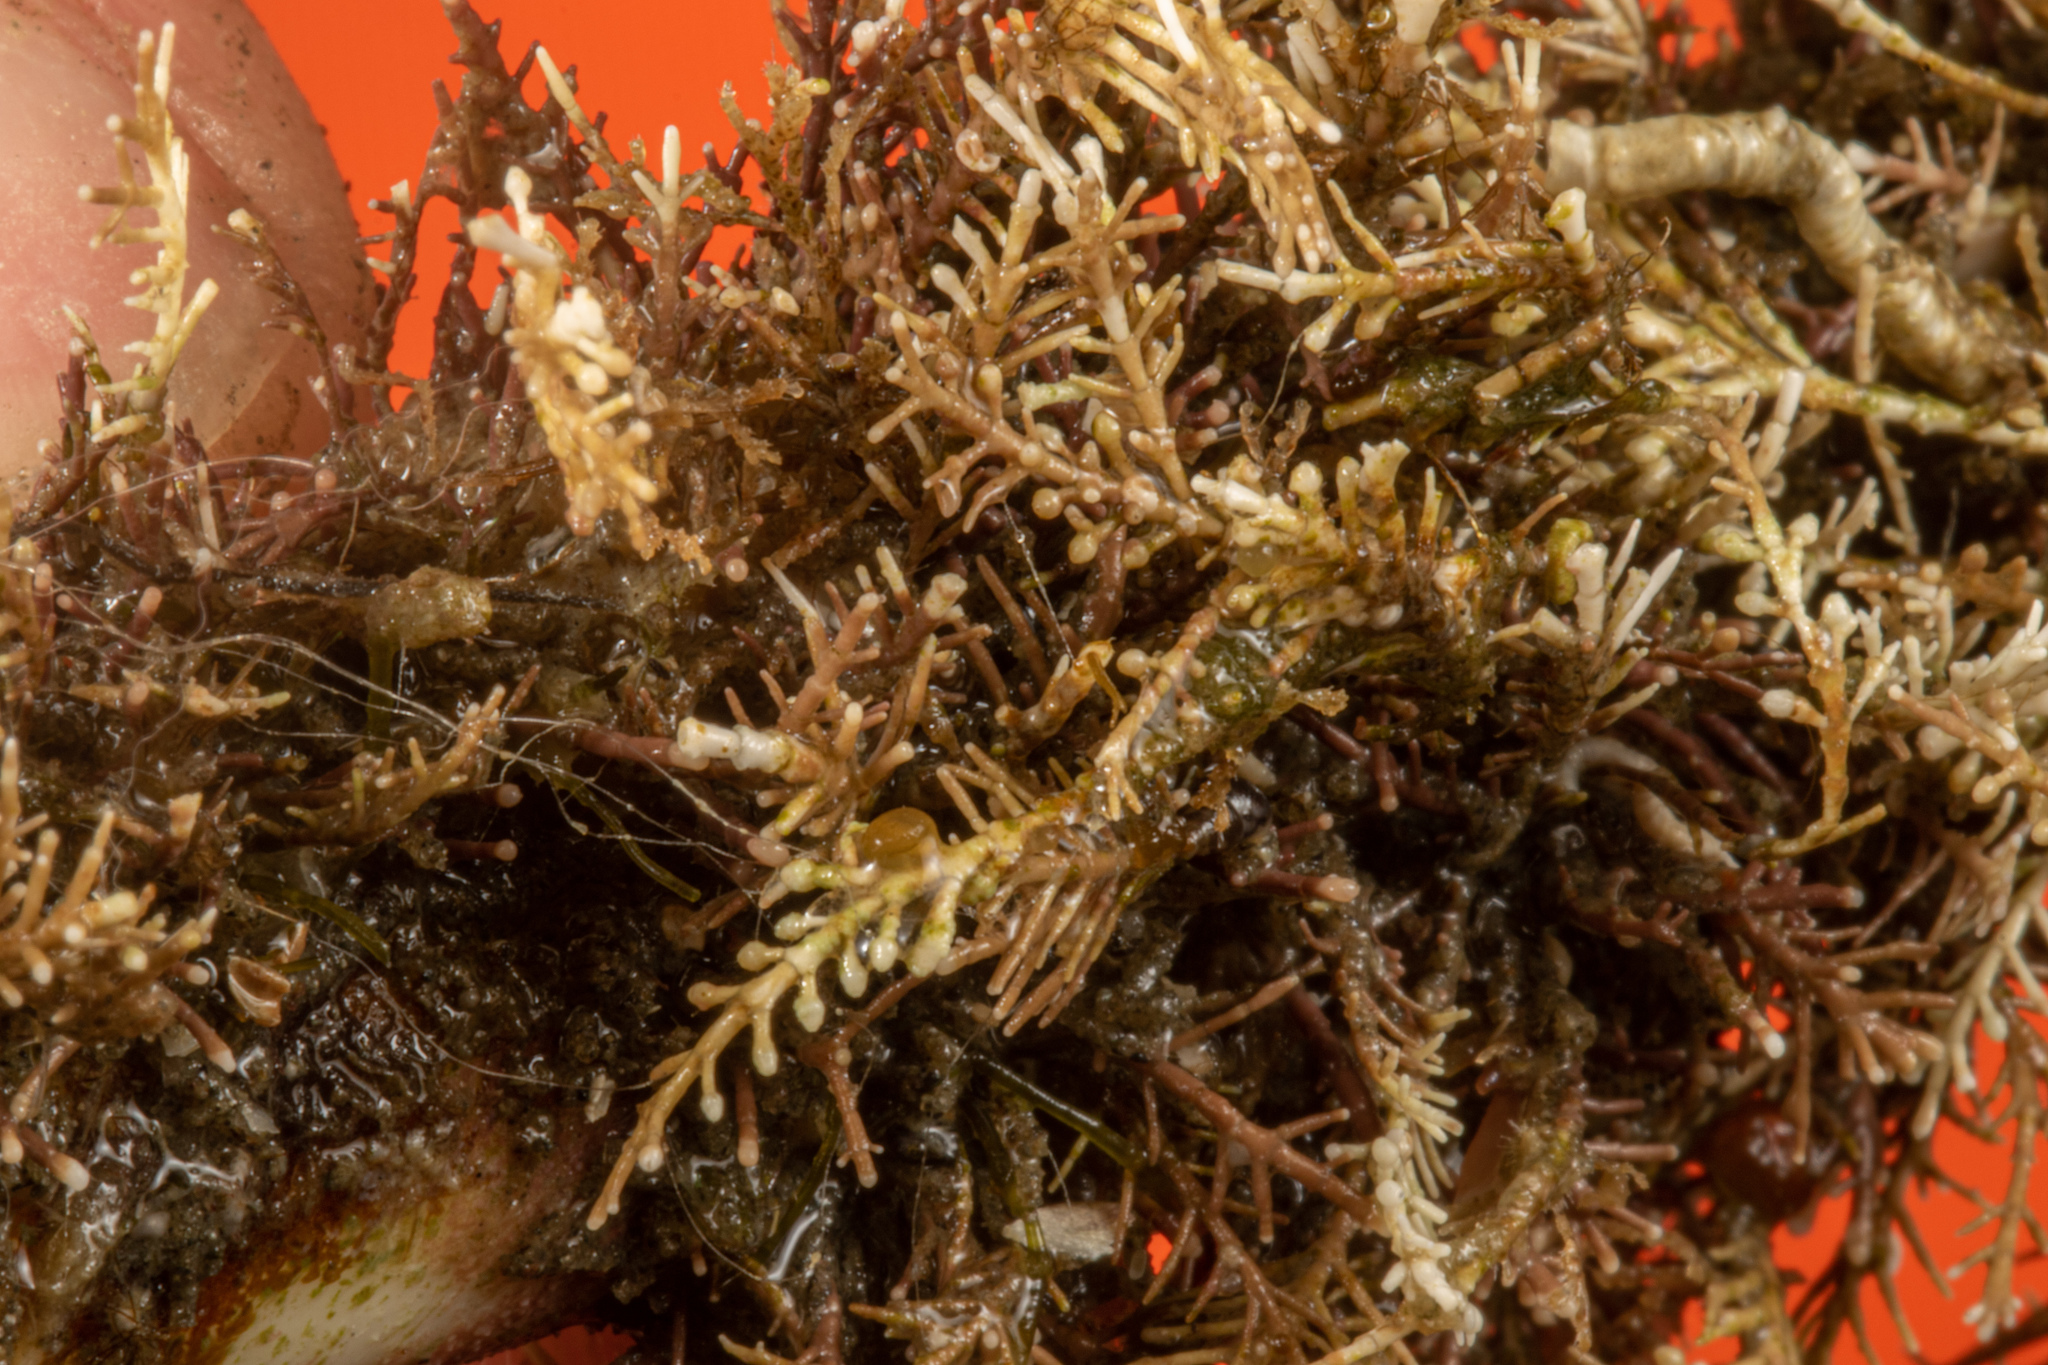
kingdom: Plantae
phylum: Rhodophyta
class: Florideophyceae
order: Corallinales
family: Corallinaceae
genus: Corallina
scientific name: Corallina officinalis
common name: Coral weed
